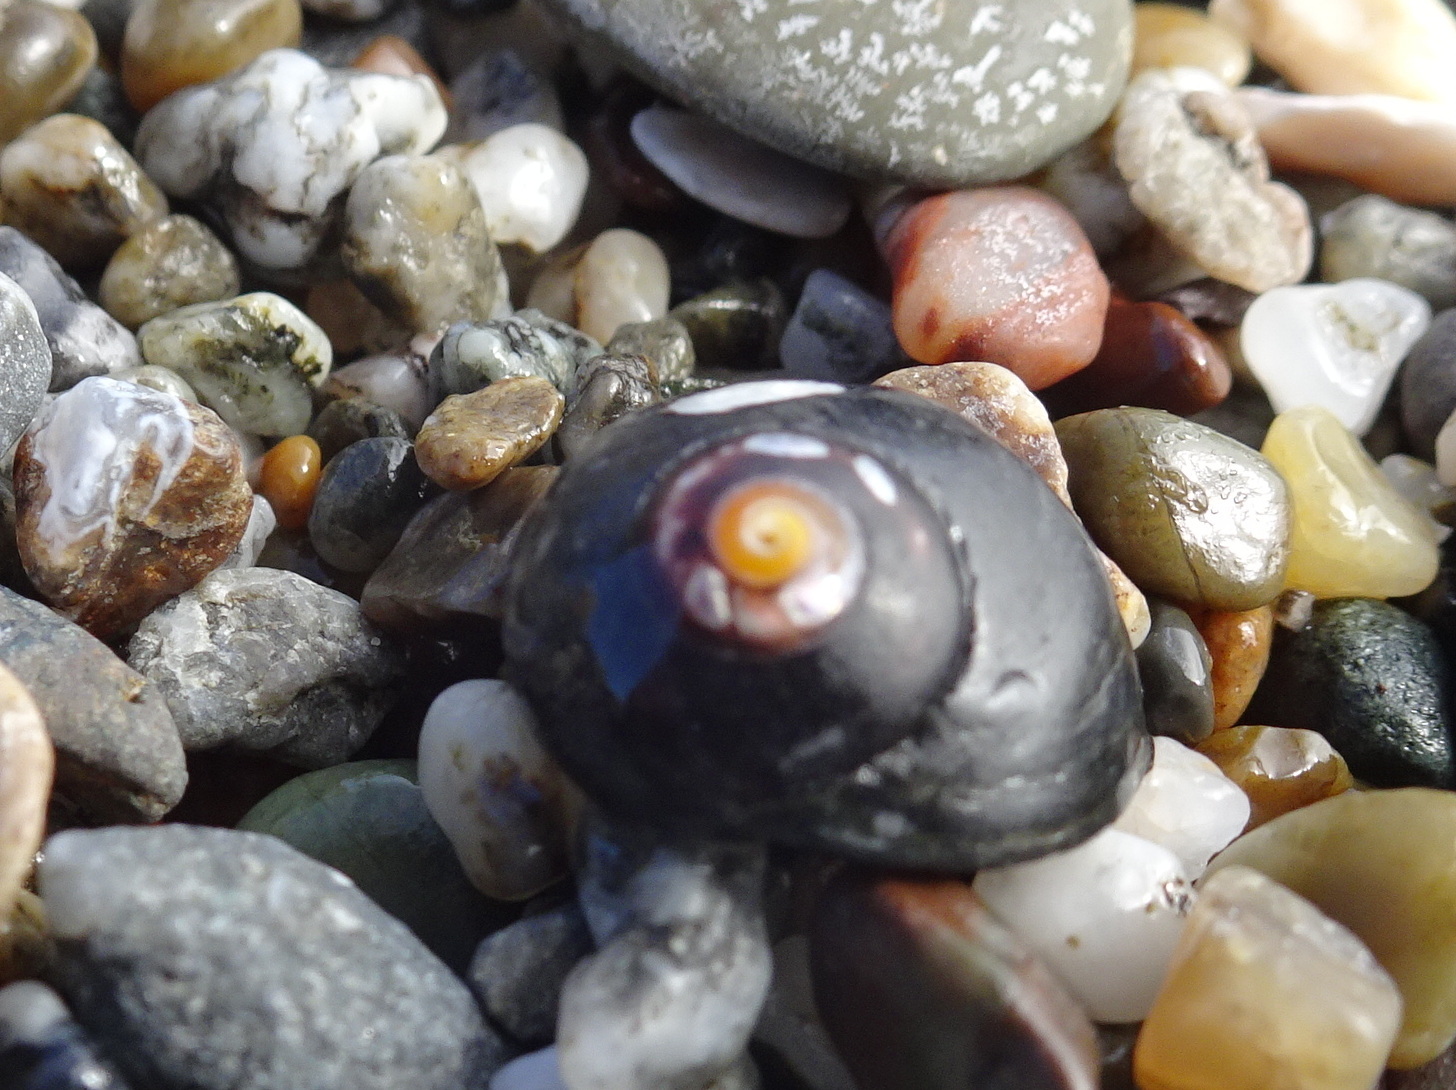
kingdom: Animalia
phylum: Mollusca
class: Gastropoda
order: Trochida
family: Tegulidae
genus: Tegula
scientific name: Tegula funebralis
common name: Black tegula
